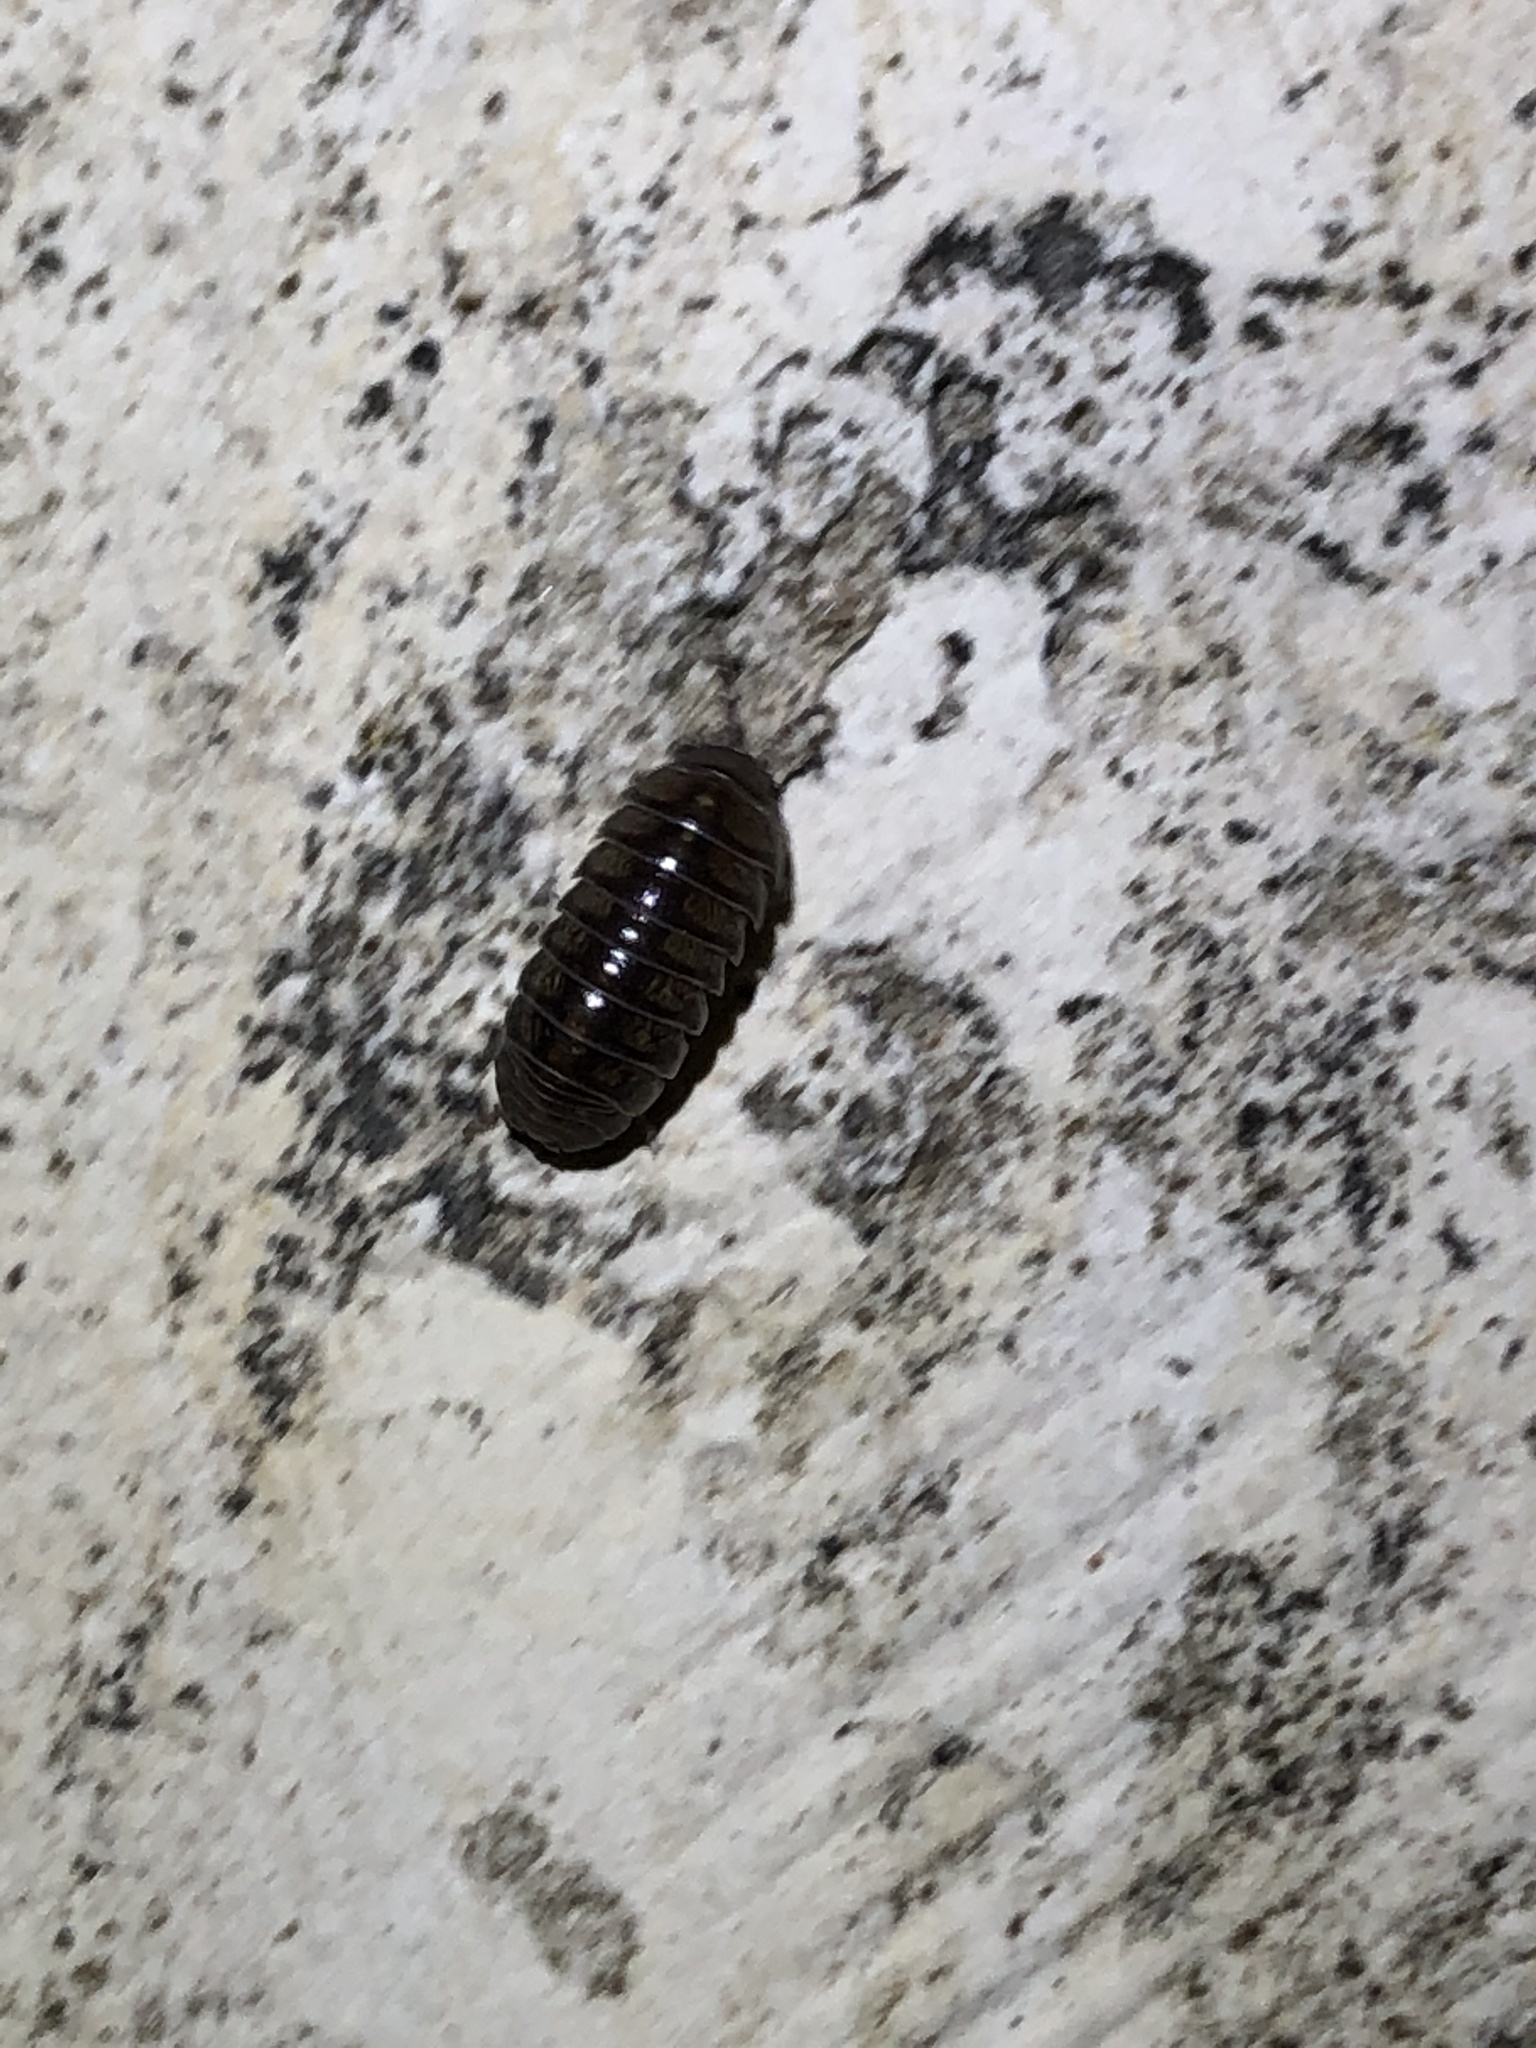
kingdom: Animalia
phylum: Arthropoda
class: Malacostraca
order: Isopoda
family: Armadillidiidae
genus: Armadillidium
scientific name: Armadillidium vulgare
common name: Common pill woodlouse
